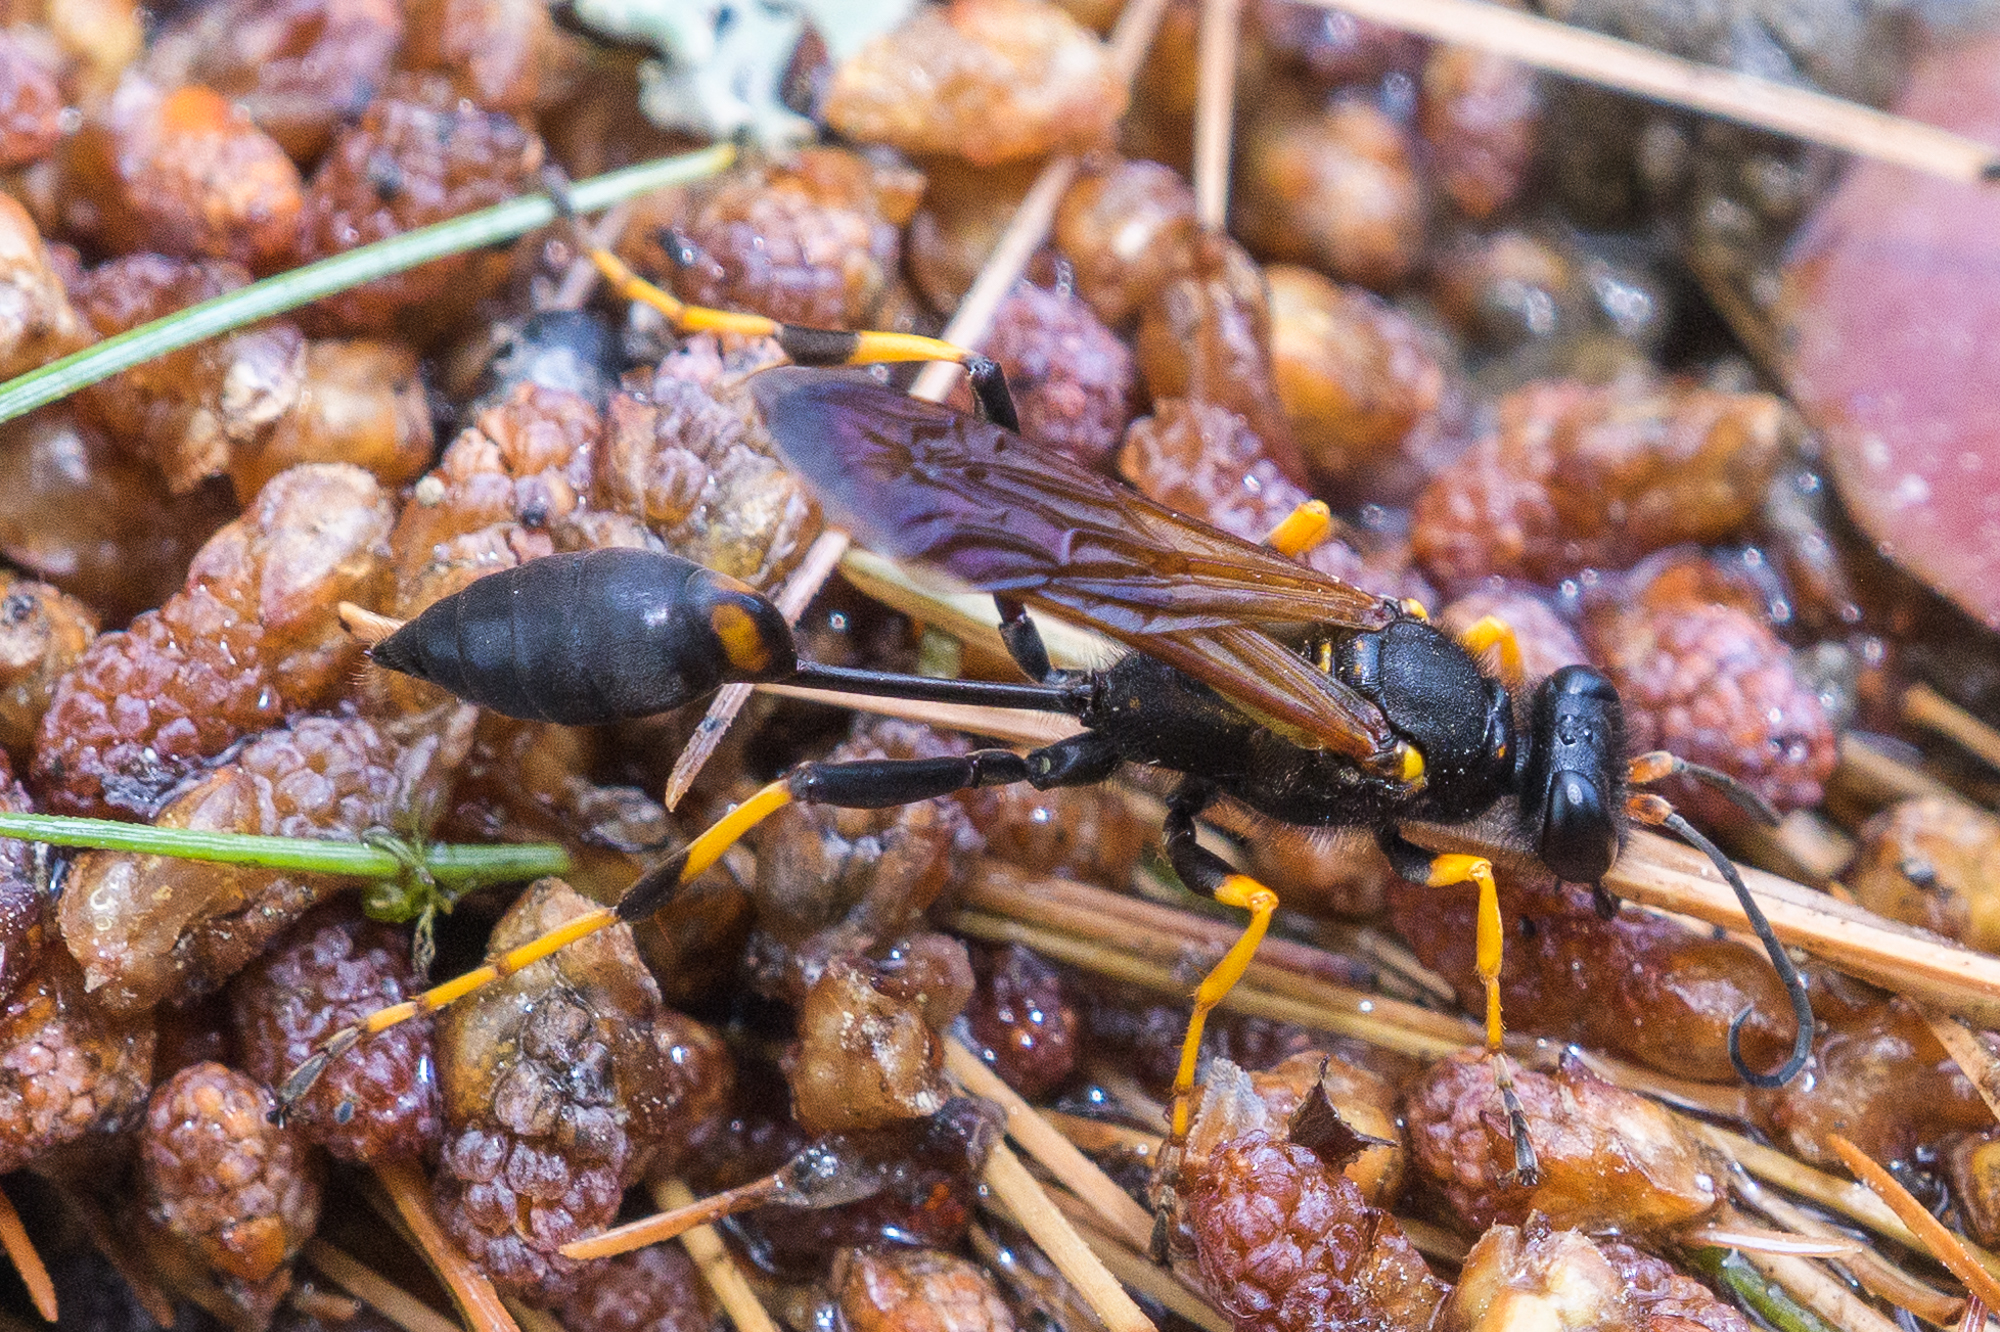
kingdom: Animalia
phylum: Arthropoda
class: Insecta
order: Hymenoptera
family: Sphecidae
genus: Sceliphron
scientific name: Sceliphron caementarium
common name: Mud dauber
